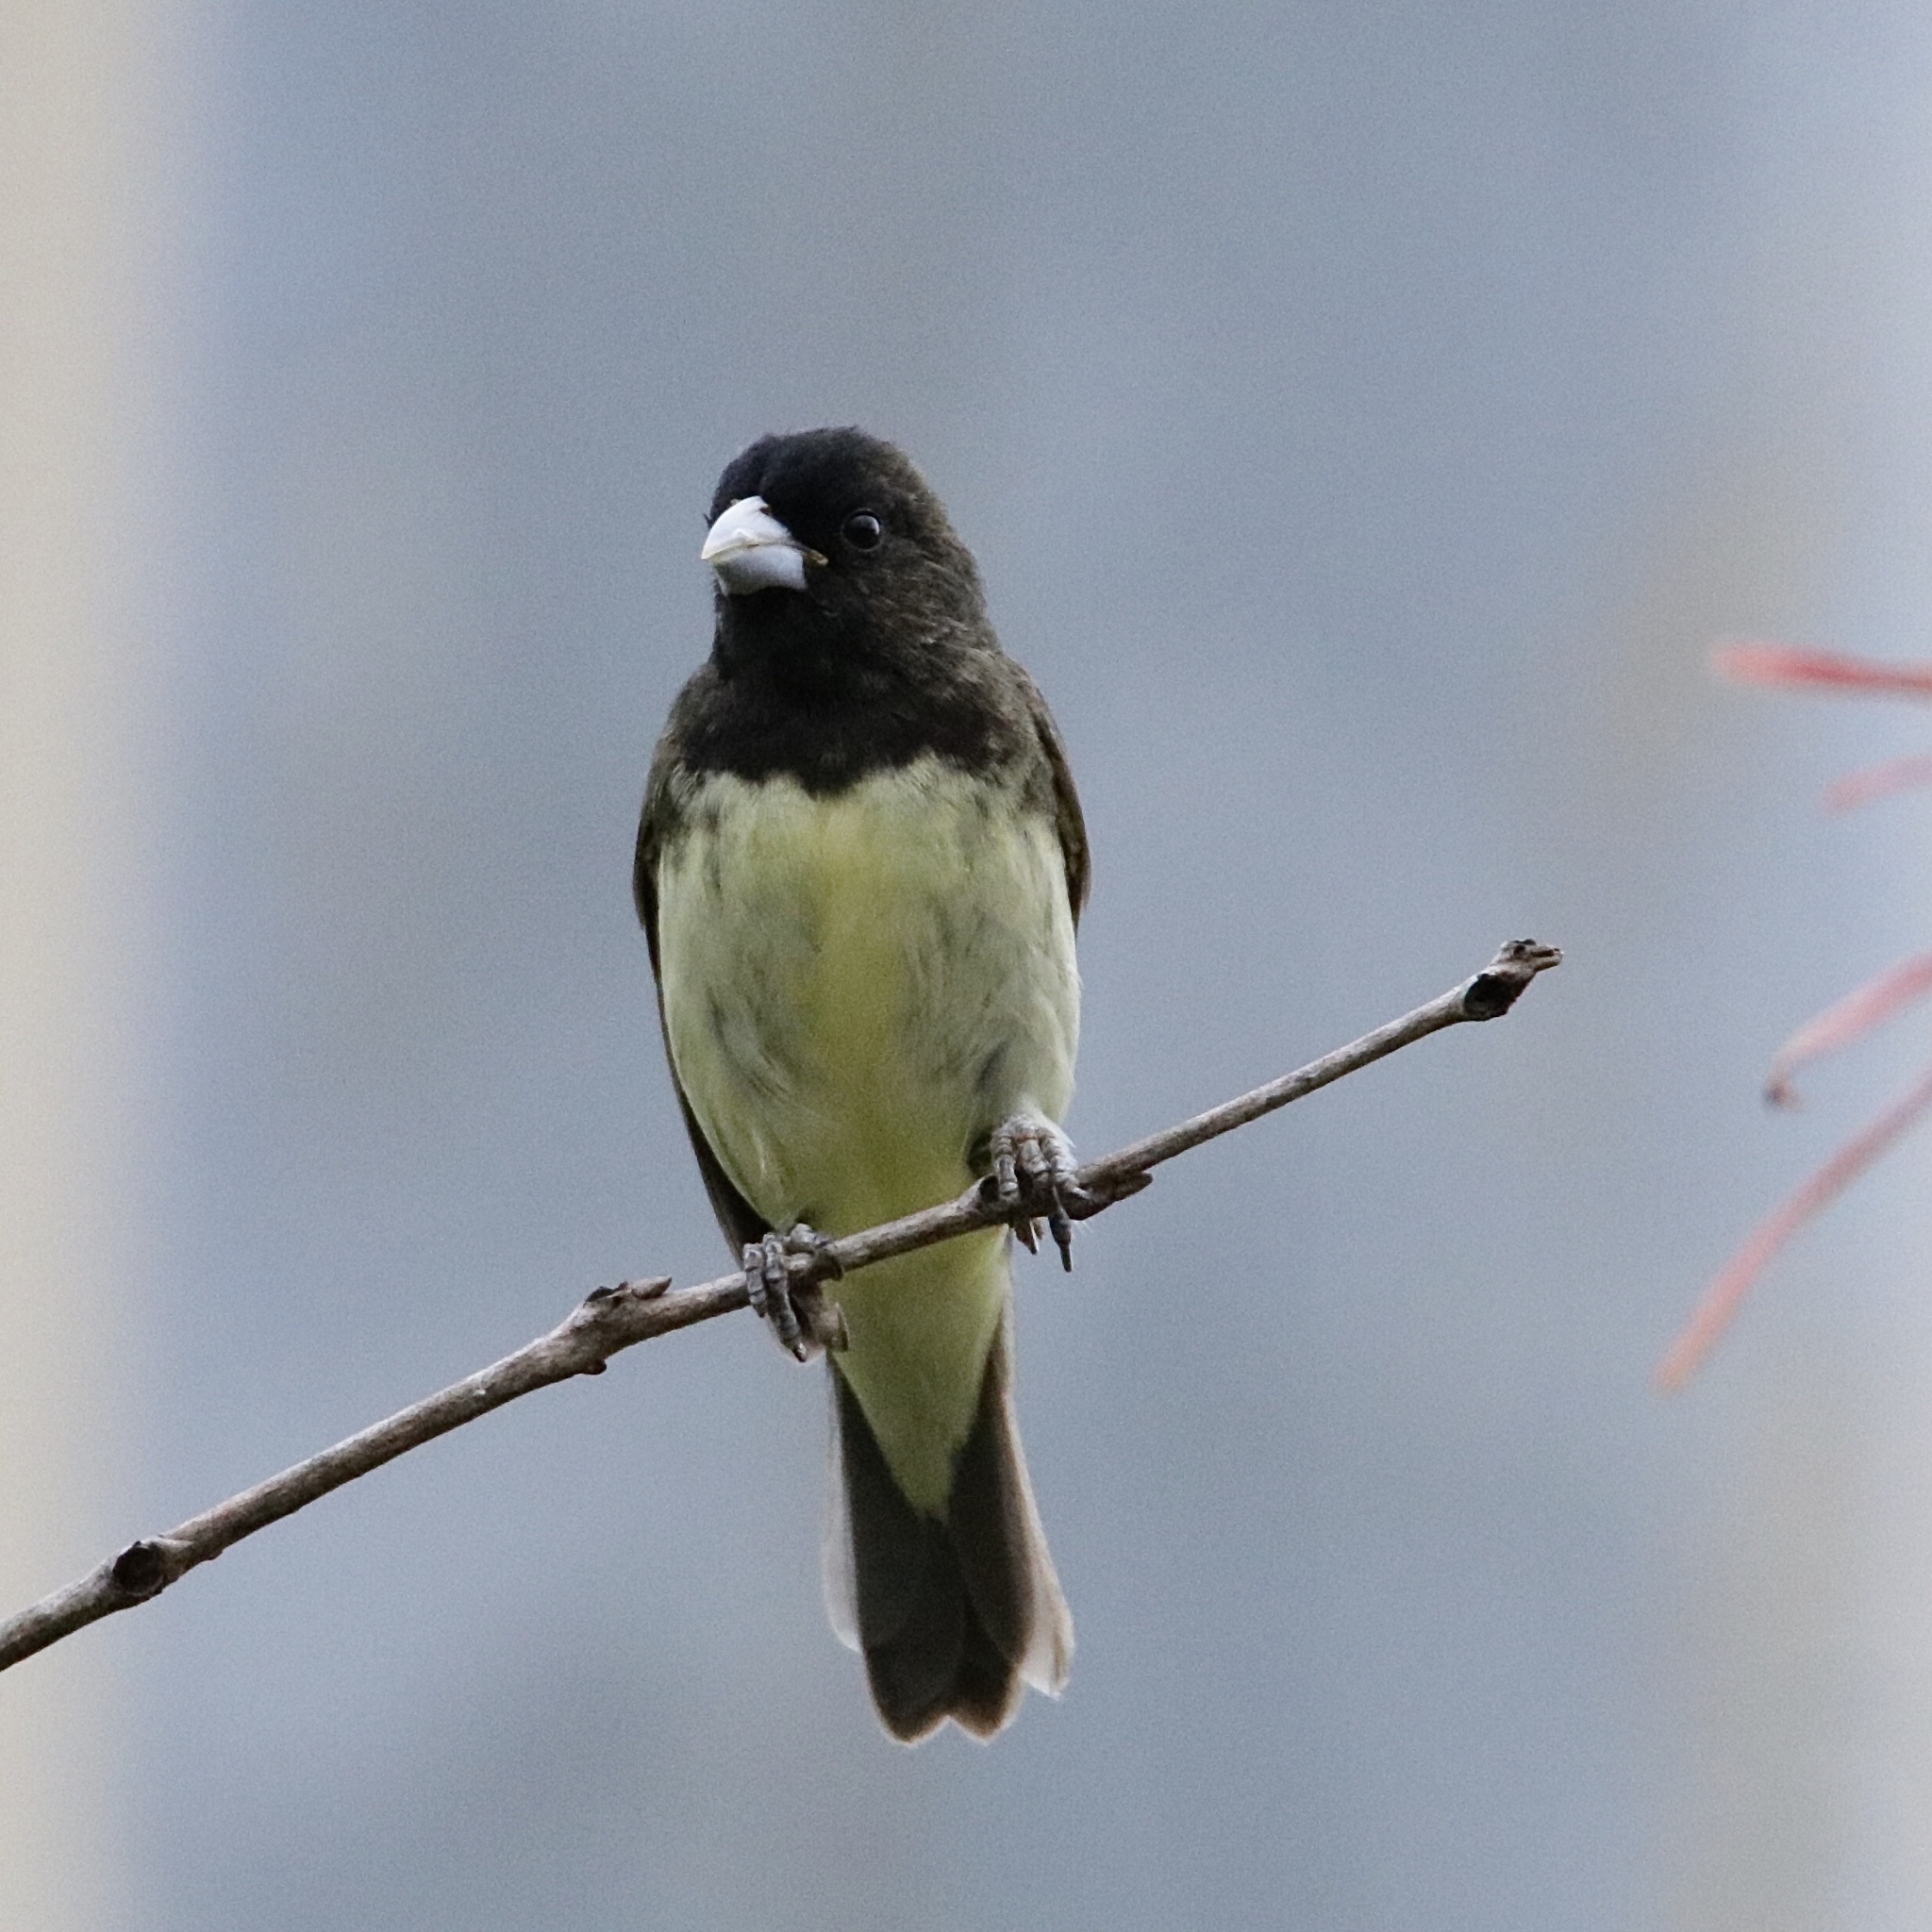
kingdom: Animalia
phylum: Chordata
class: Aves
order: Passeriformes
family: Thraupidae
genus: Sporophila
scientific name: Sporophila nigricollis
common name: Yellow-bellied seedeater
